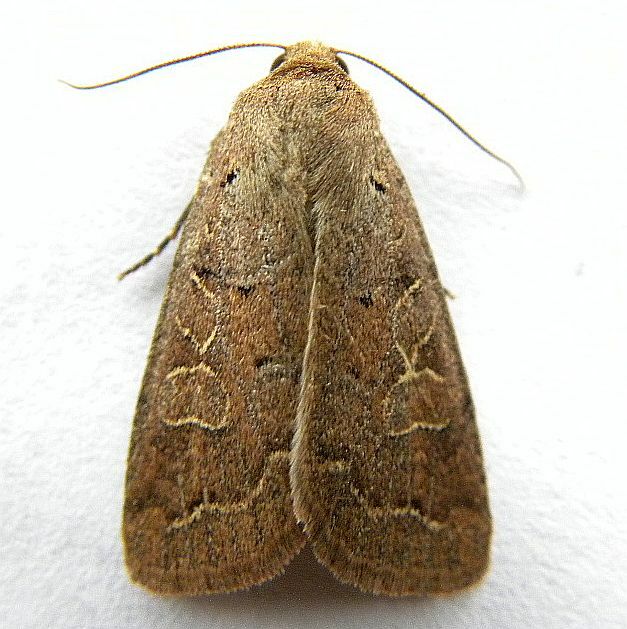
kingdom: Animalia
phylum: Arthropoda
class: Insecta
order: Lepidoptera
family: Noctuidae
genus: Kocakina
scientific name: Kocakina fidelis
